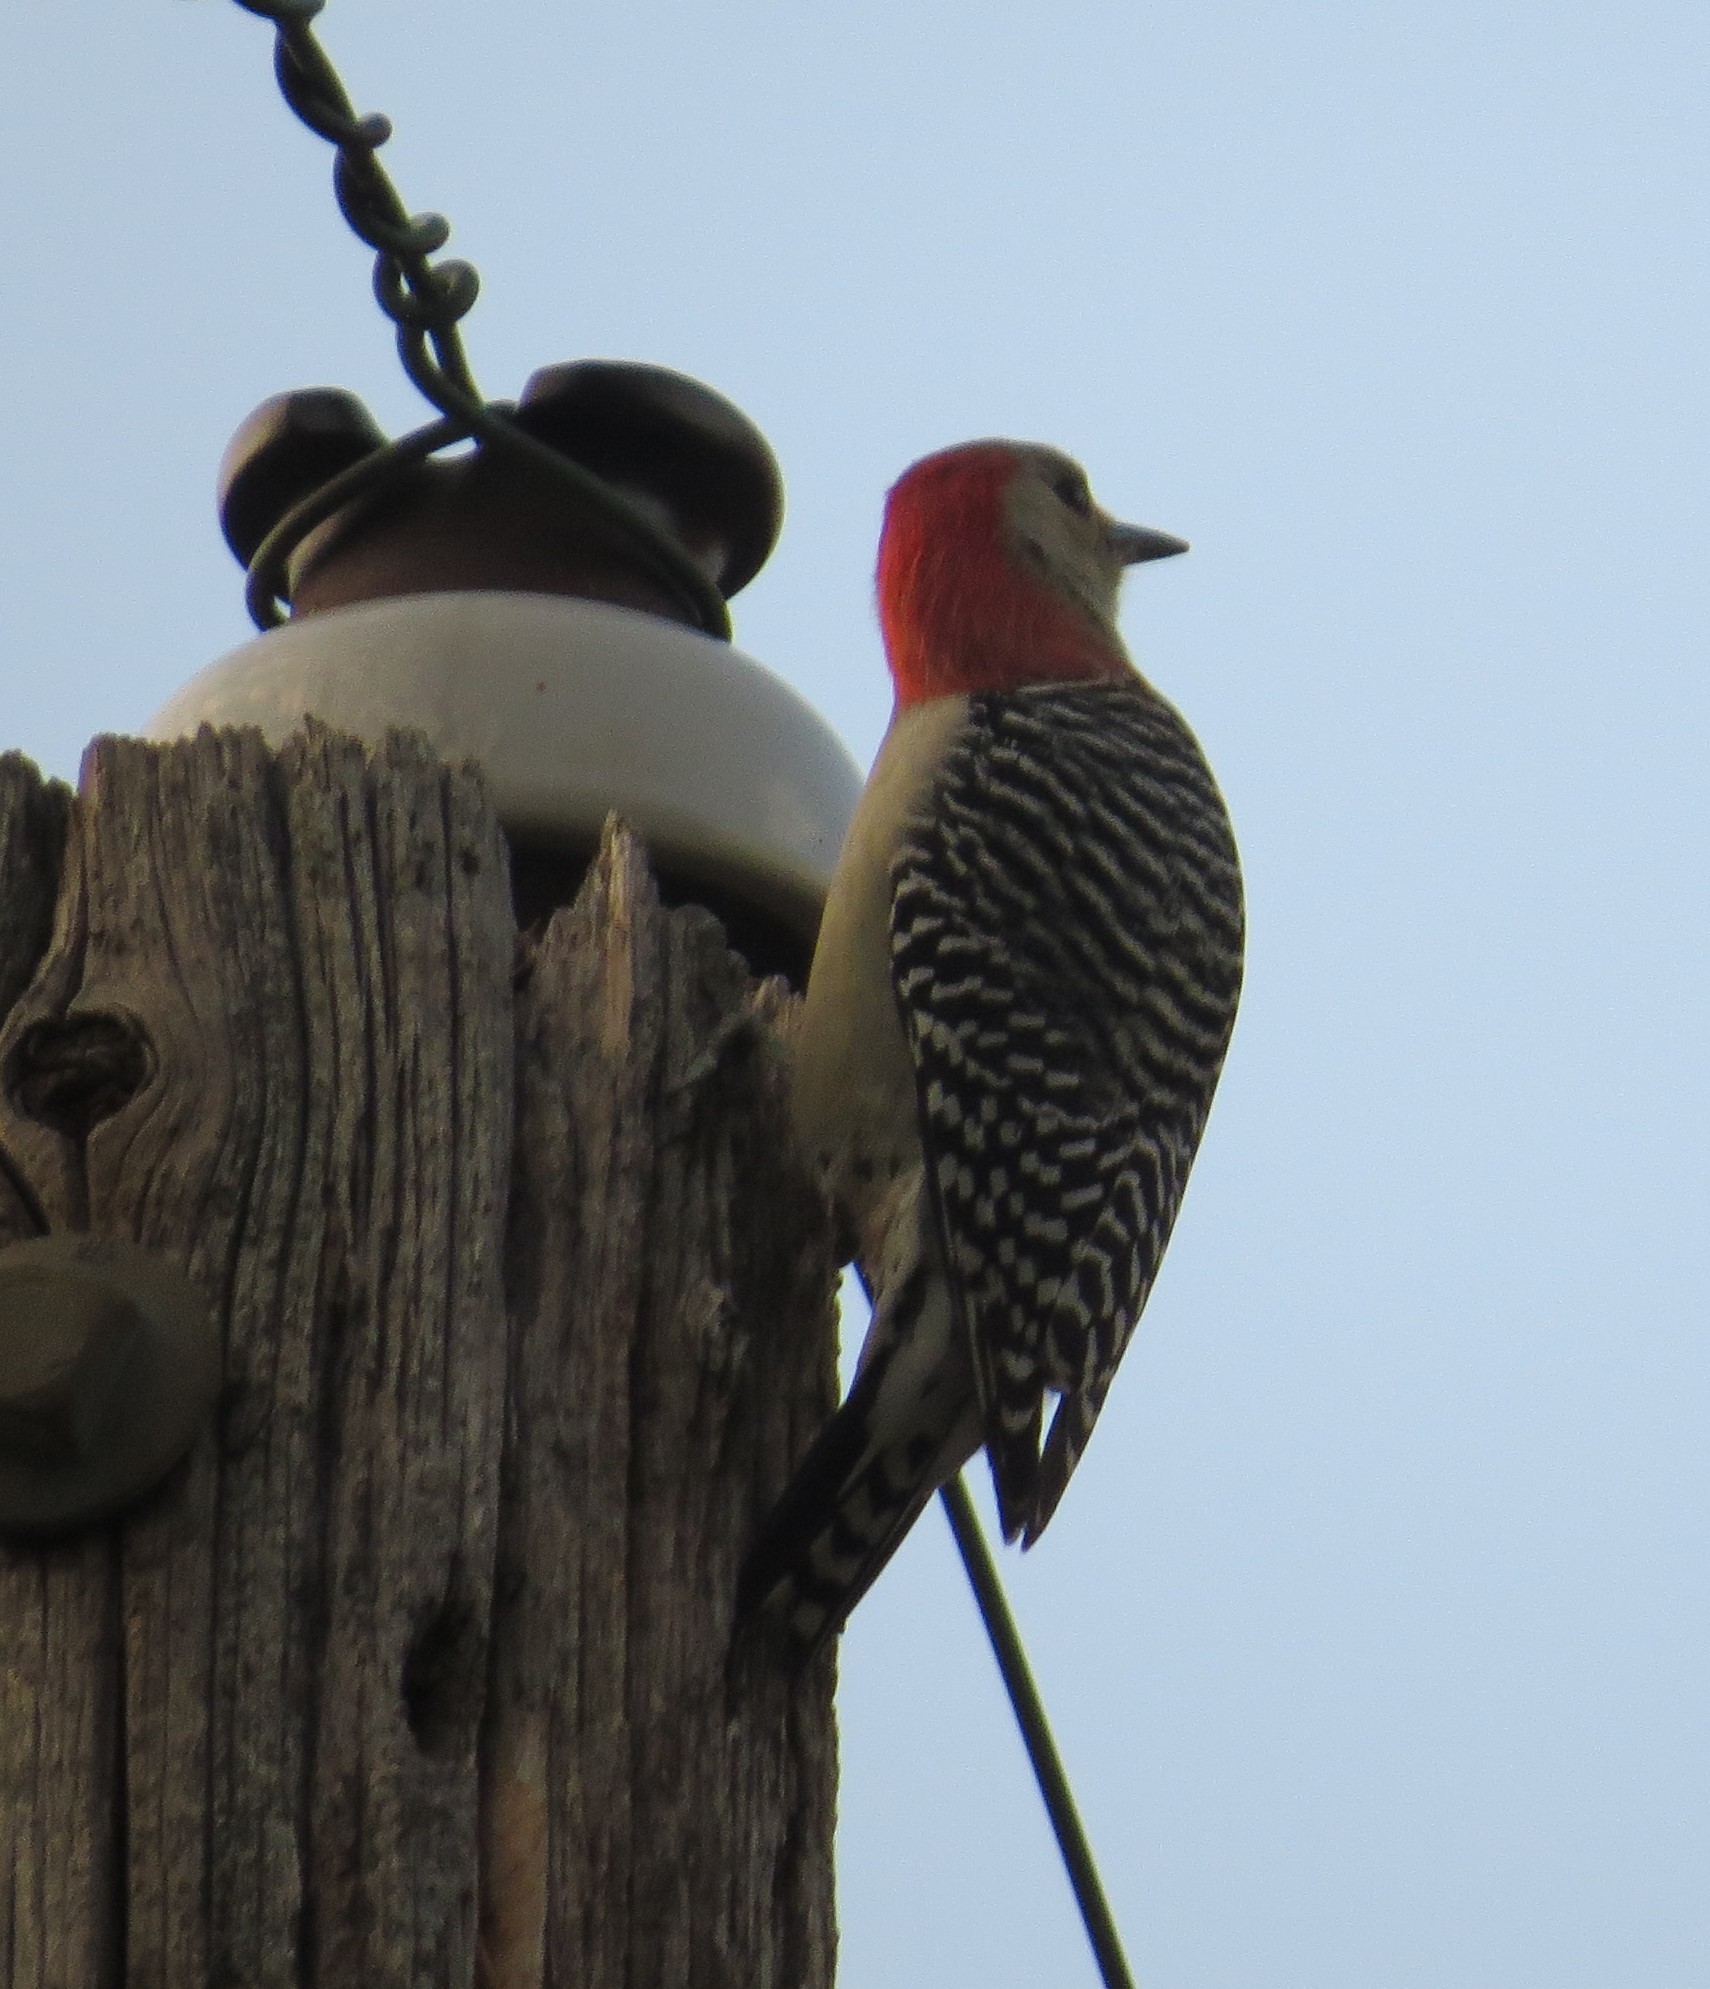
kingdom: Animalia
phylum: Chordata
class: Aves
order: Piciformes
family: Picidae
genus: Melanerpes
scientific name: Melanerpes carolinus
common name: Red-bellied woodpecker
